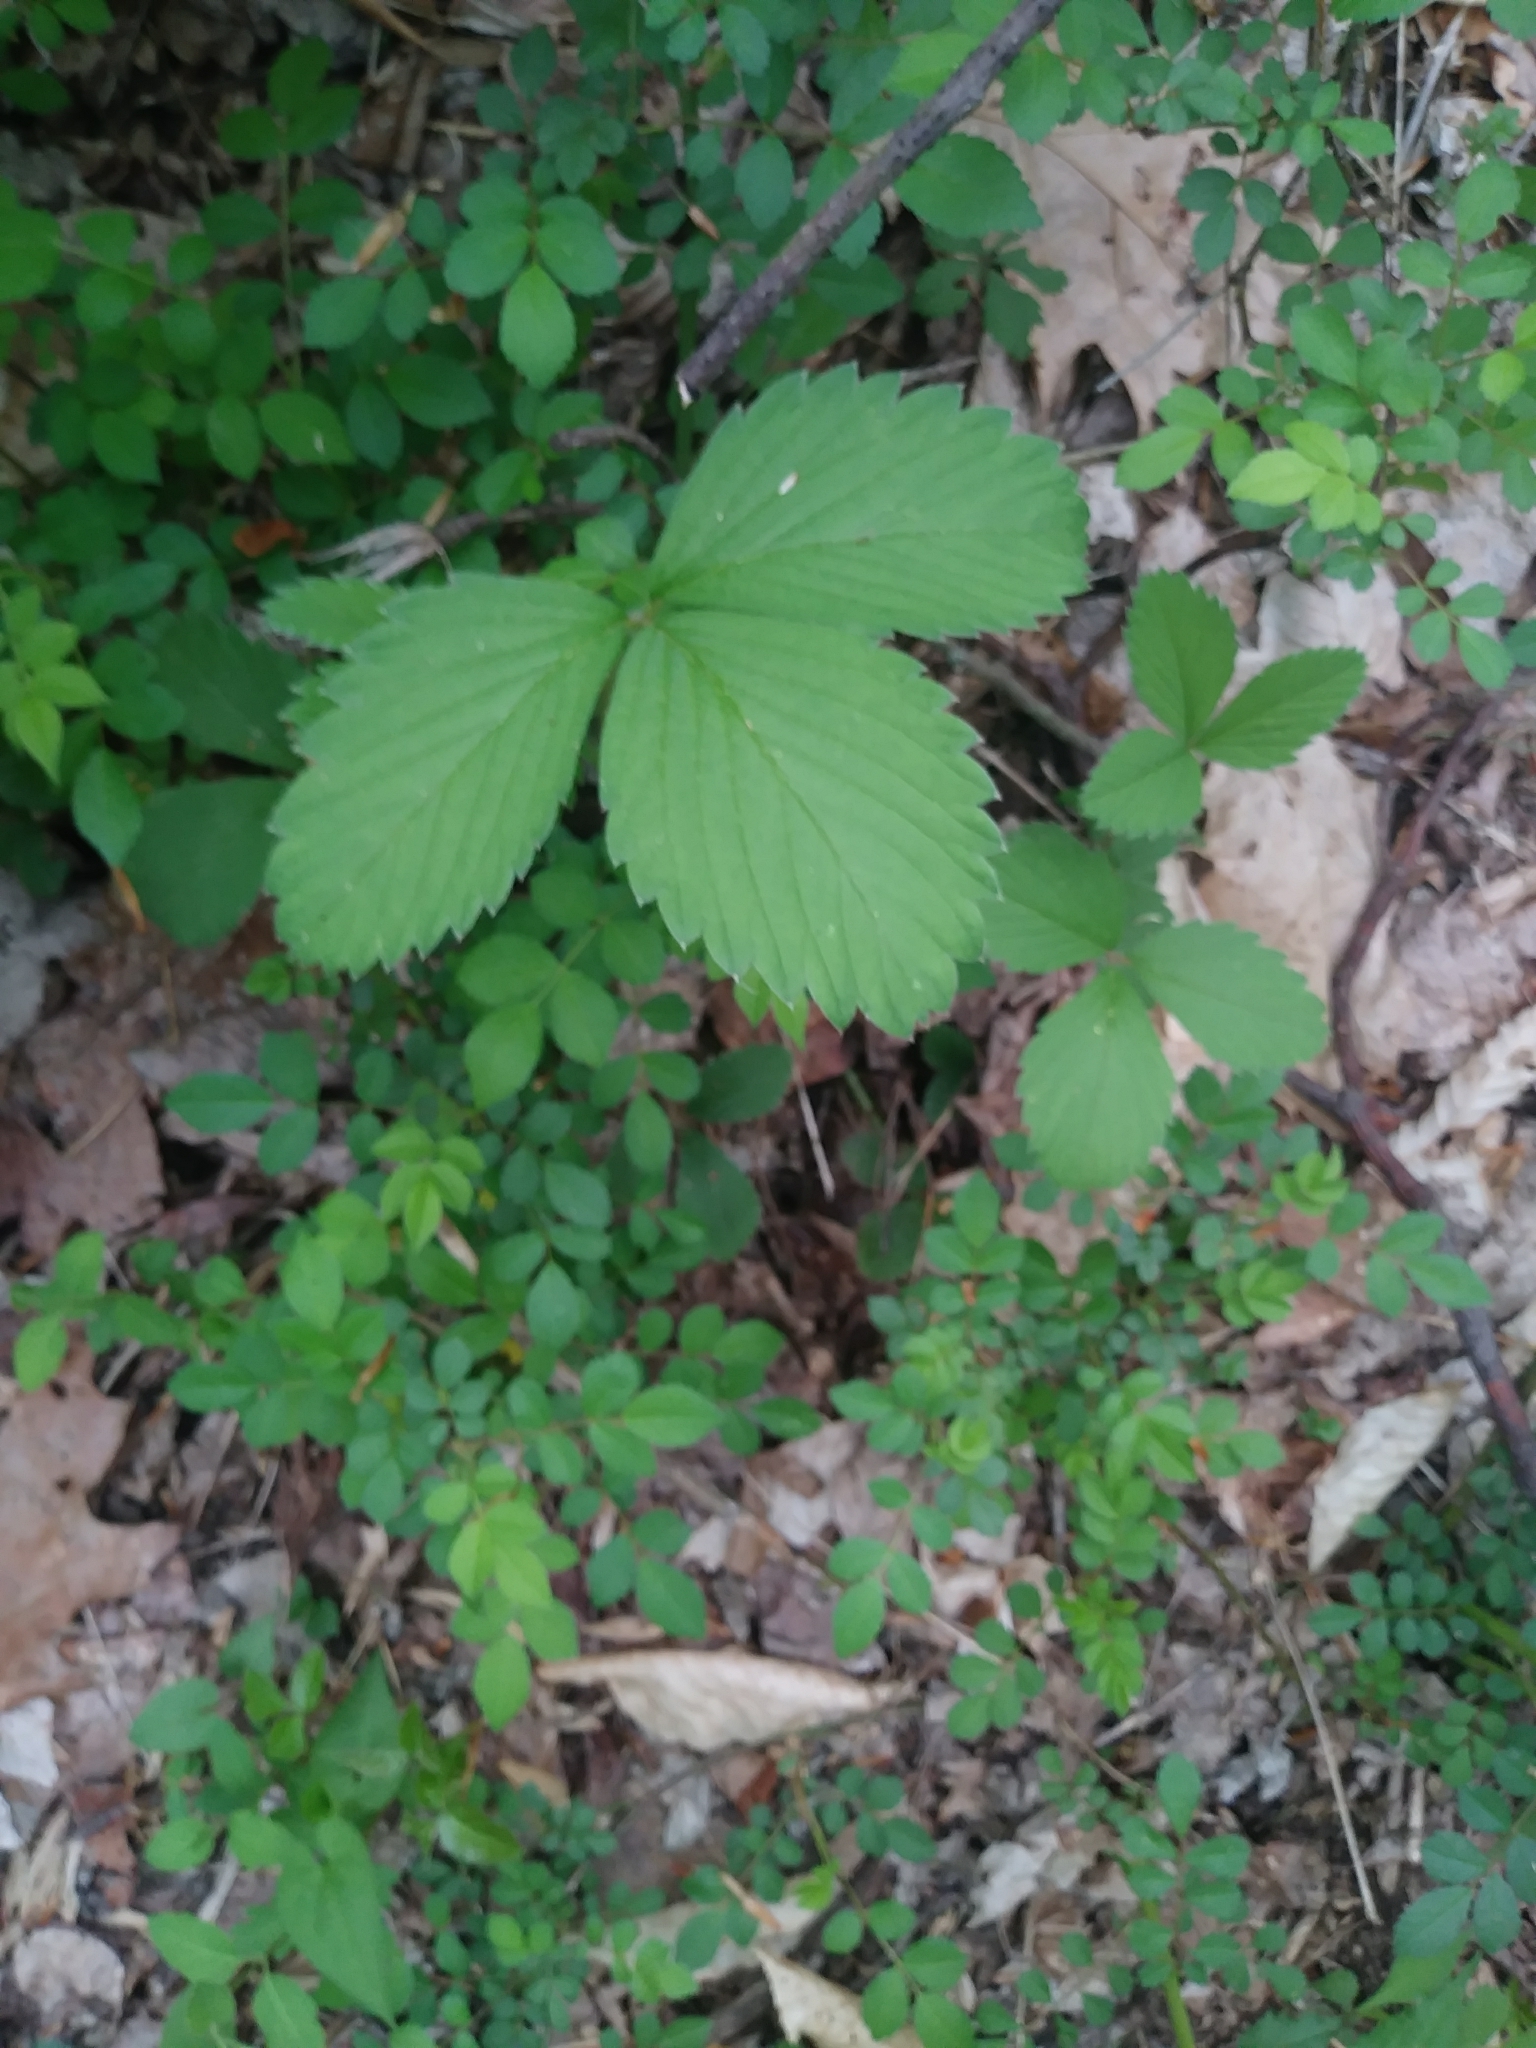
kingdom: Plantae
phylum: Tracheophyta
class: Magnoliopsida
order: Rosales
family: Rosaceae
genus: Fragaria
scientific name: Fragaria virginiana
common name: Thickleaved wild strawberry
